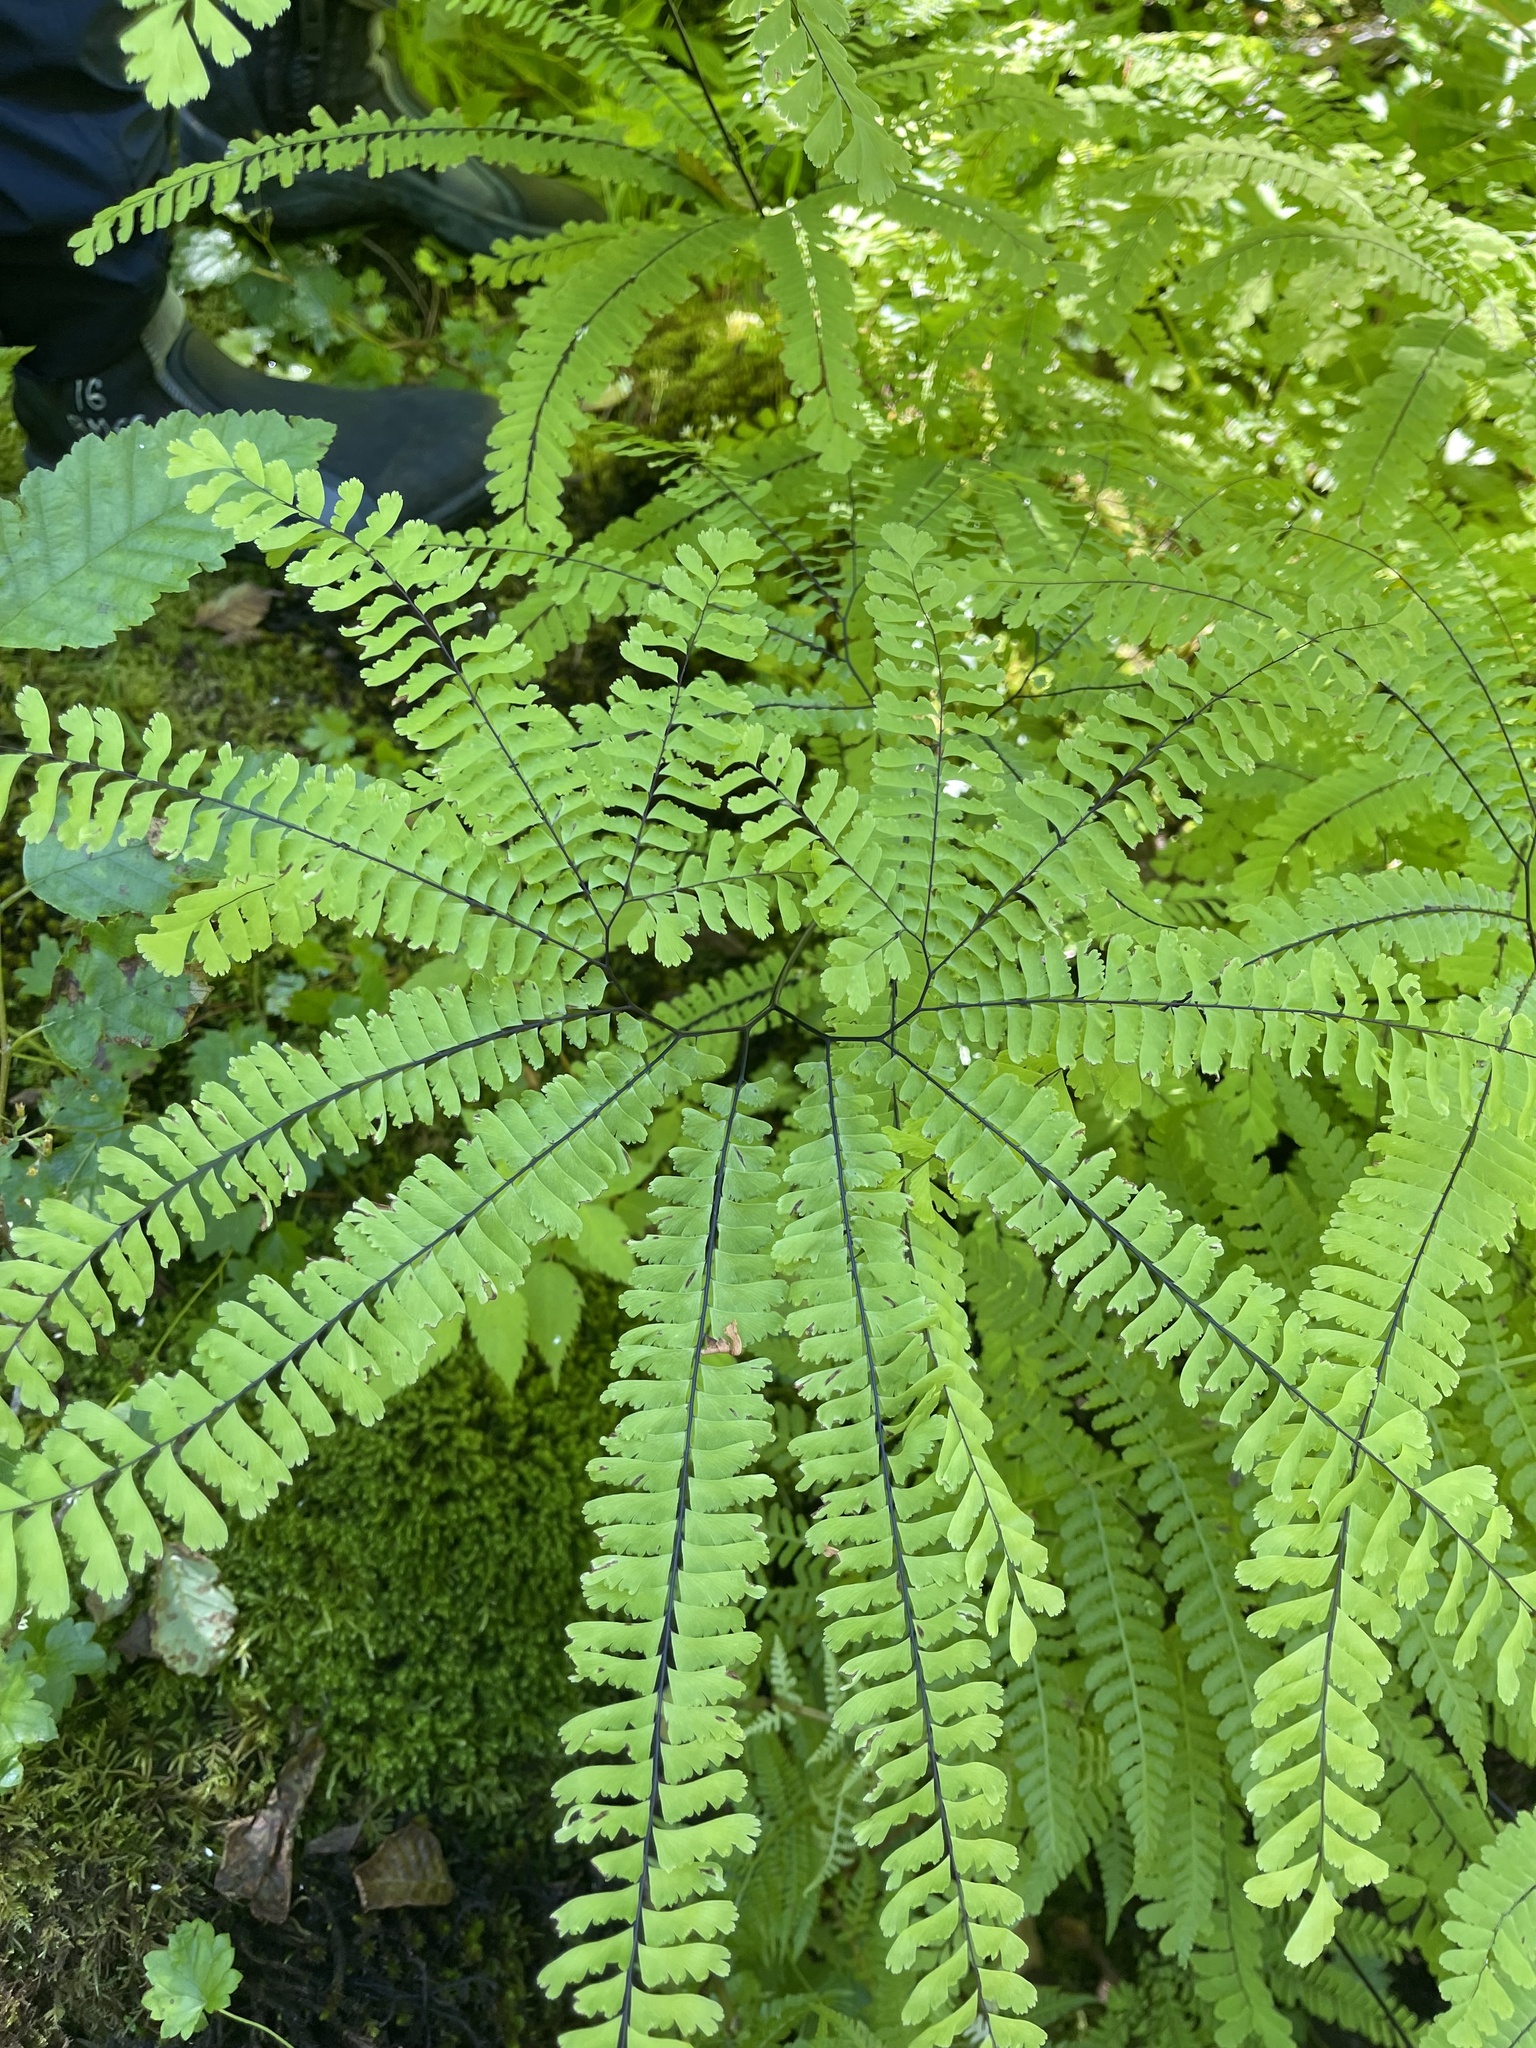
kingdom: Plantae
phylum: Tracheophyta
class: Polypodiopsida
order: Polypodiales
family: Pteridaceae
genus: Adiantum
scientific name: Adiantum aleuticum
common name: Aleutian maidenhair fern
